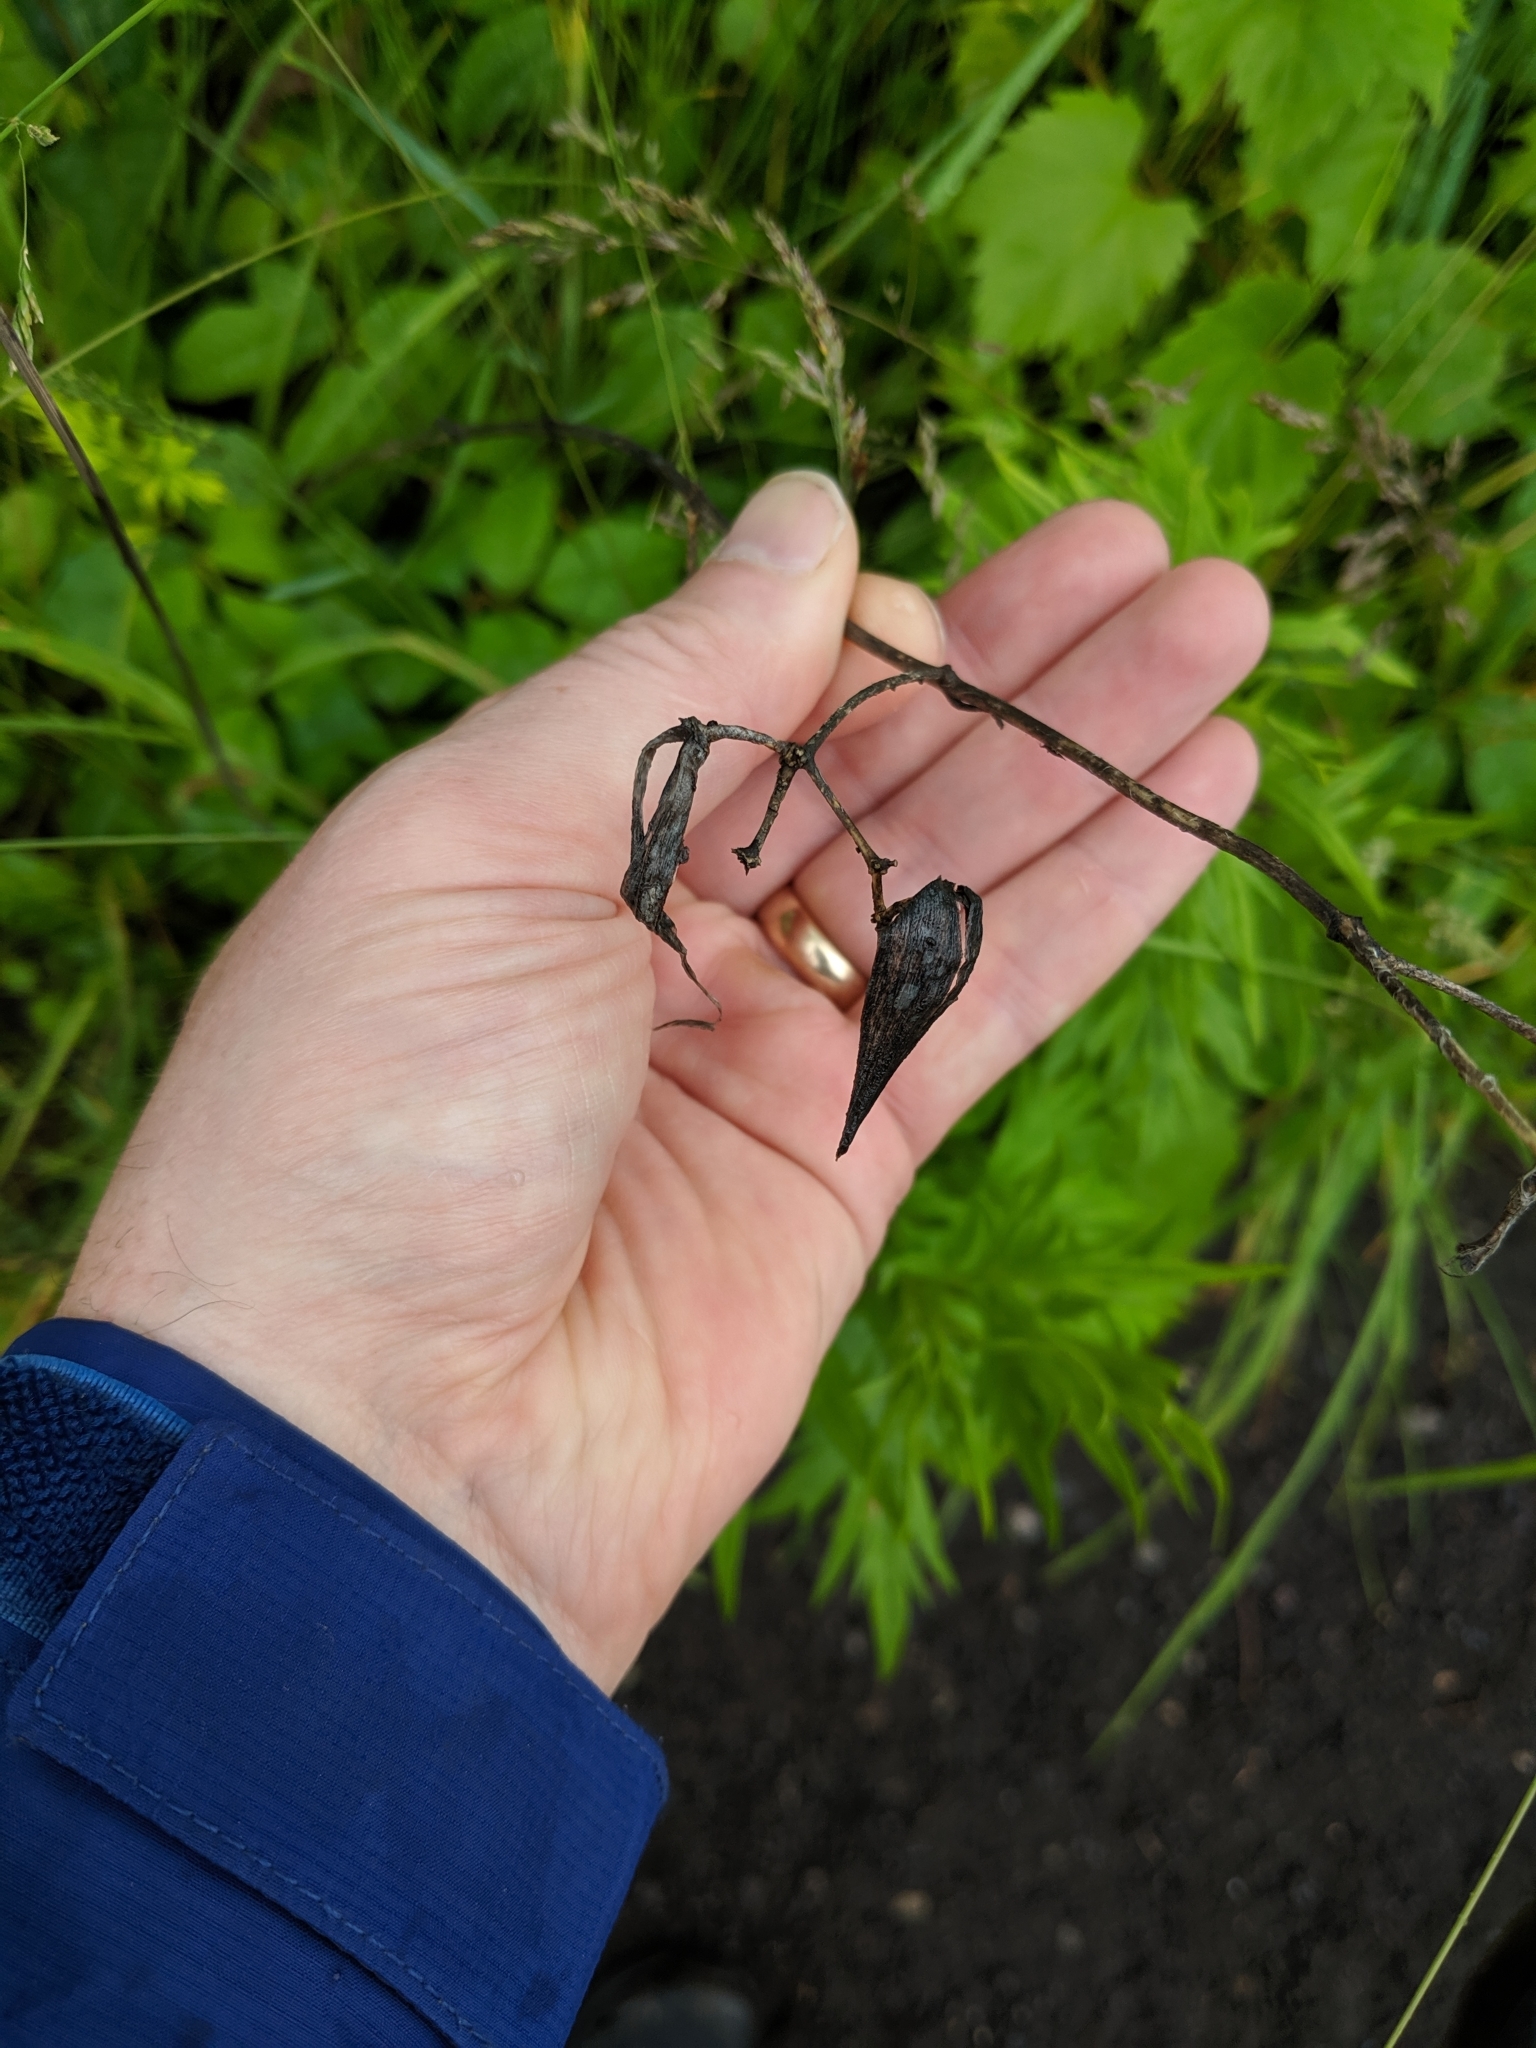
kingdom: Plantae
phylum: Tracheophyta
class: Magnoliopsida
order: Gentianales
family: Apocynaceae
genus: Vincetoxicum
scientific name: Vincetoxicum rossicum
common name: Dog-strangling vine
